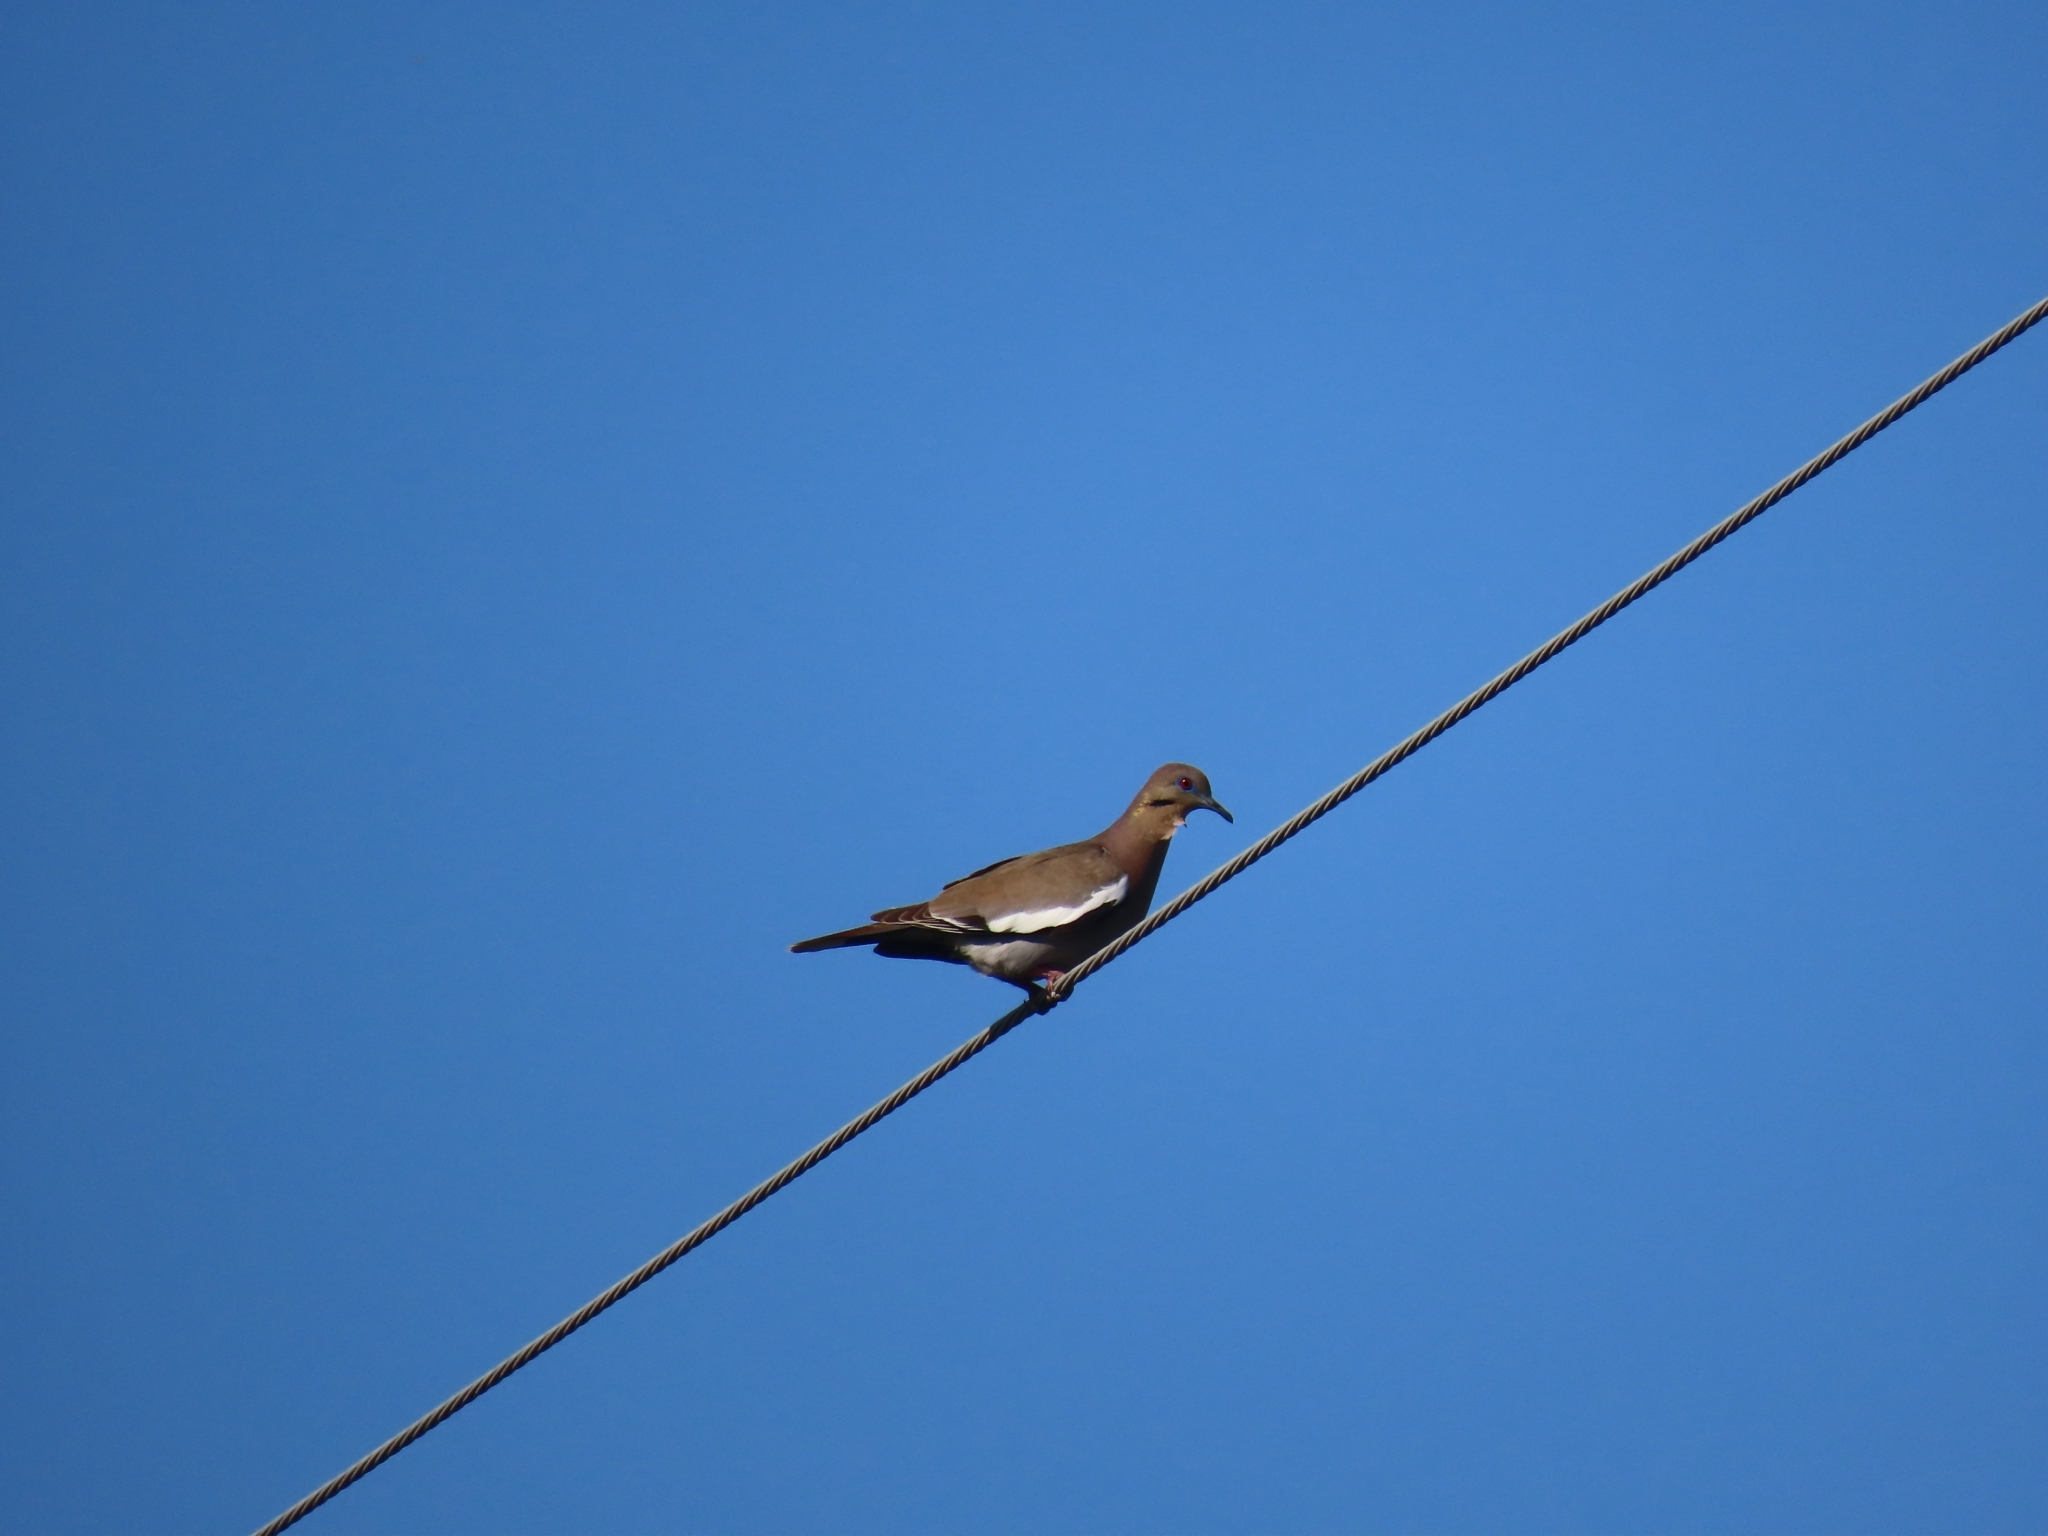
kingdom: Animalia
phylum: Chordata
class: Aves
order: Columbiformes
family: Columbidae
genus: Zenaida
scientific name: Zenaida asiatica
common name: White-winged dove
